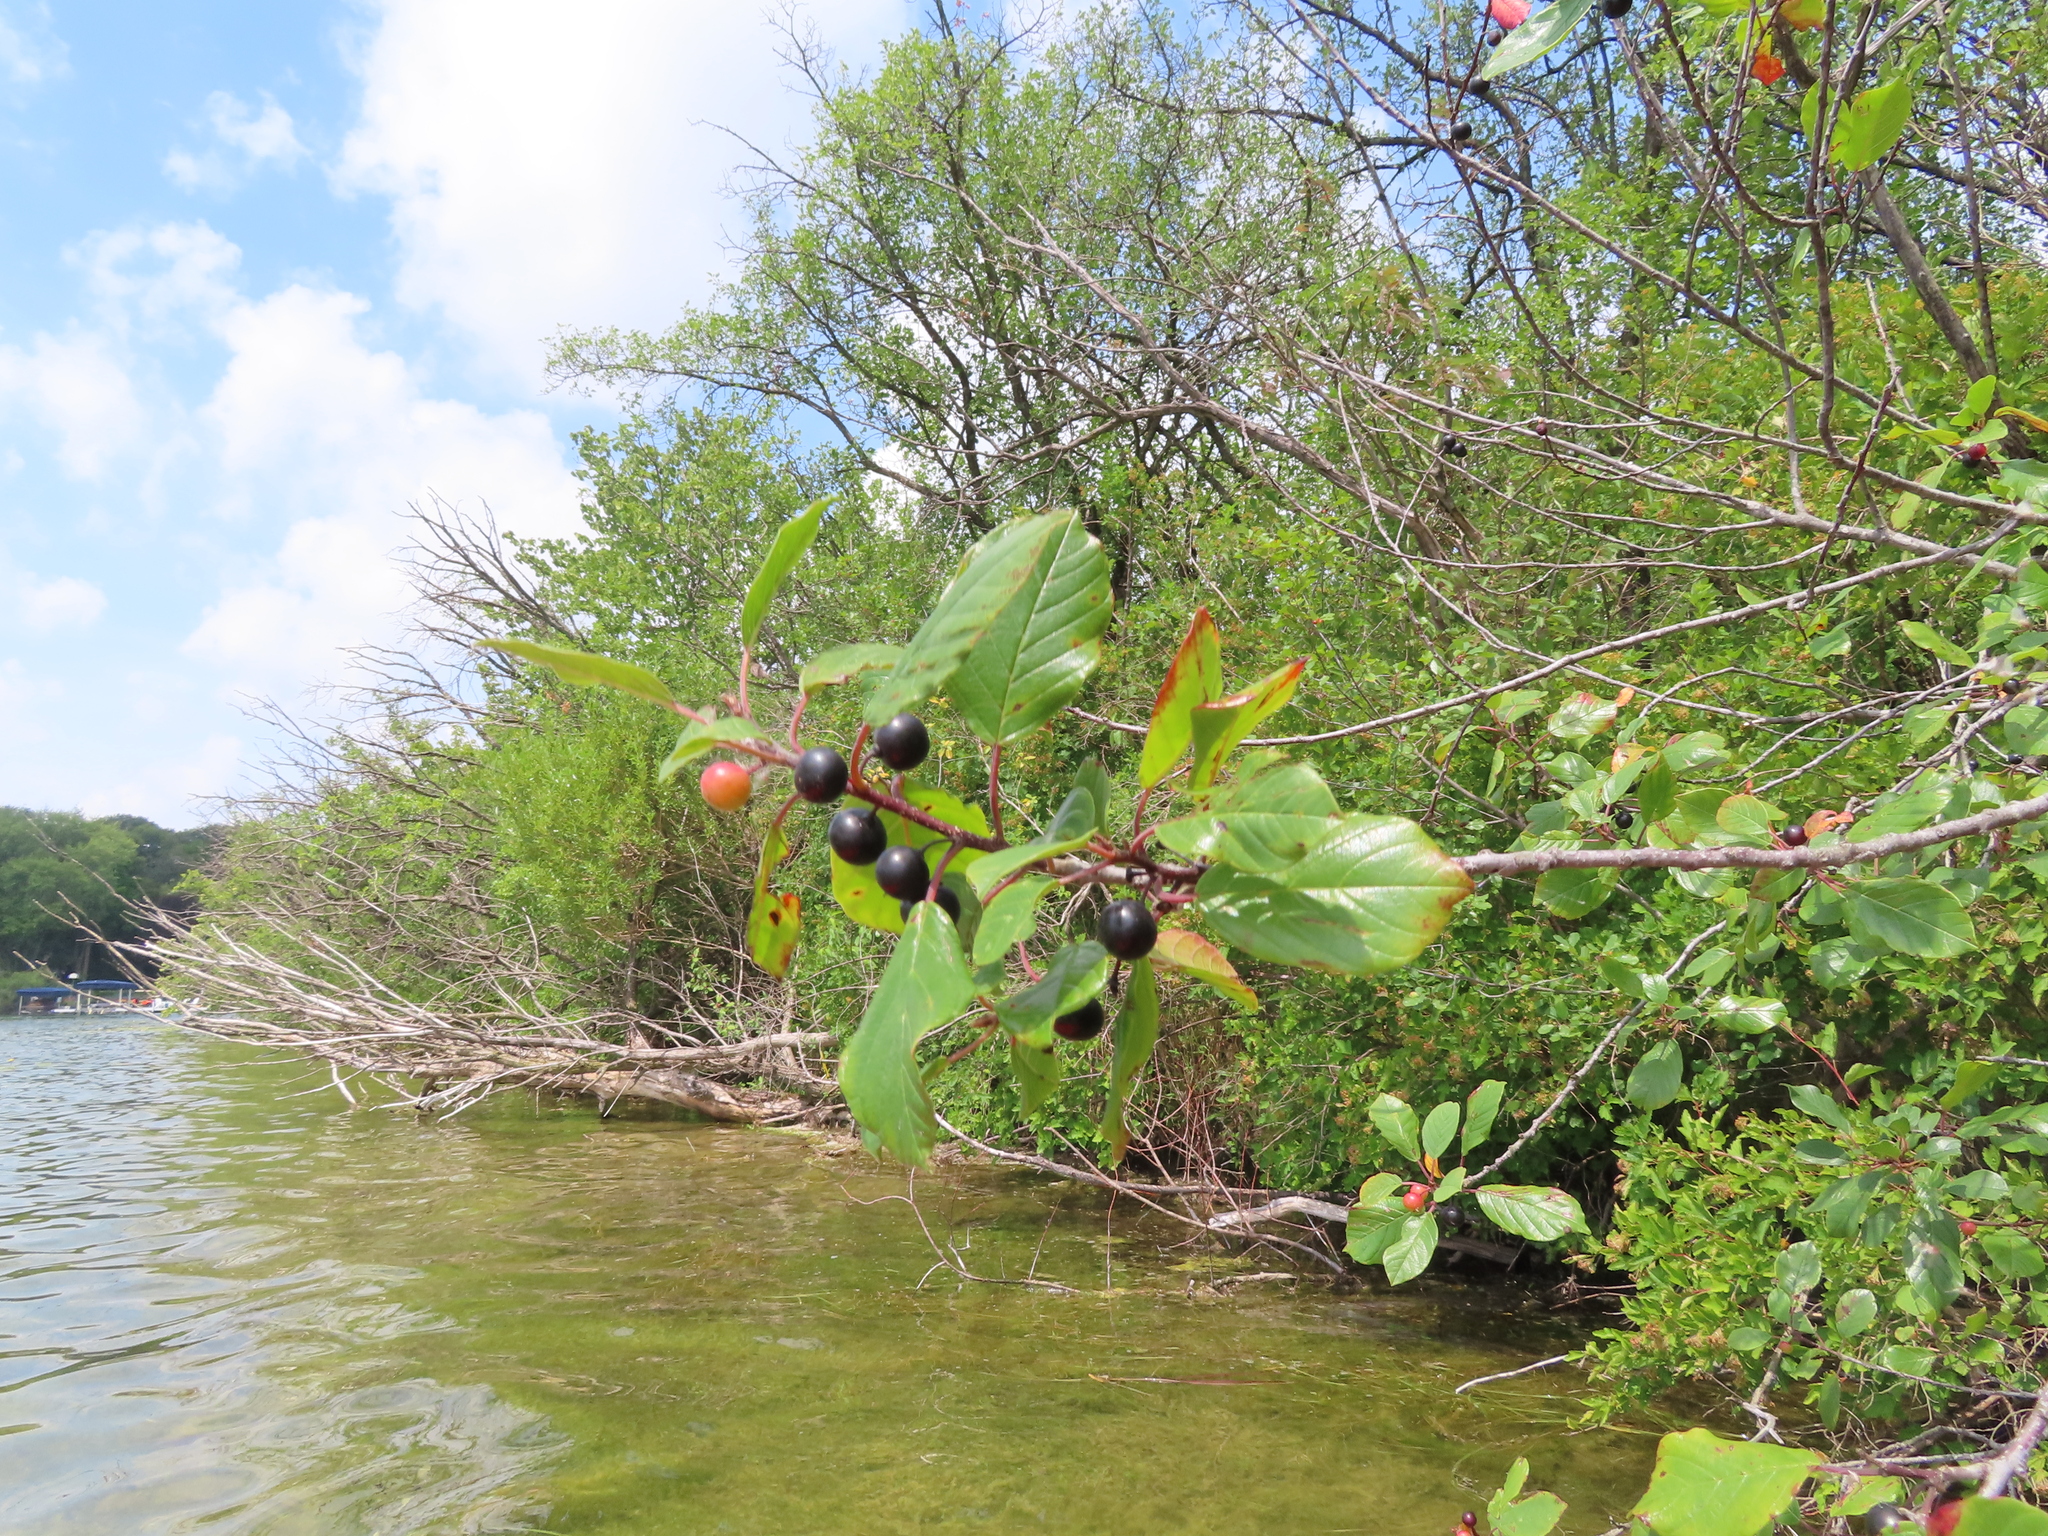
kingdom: Plantae
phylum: Tracheophyta
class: Magnoliopsida
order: Rosales
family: Rhamnaceae
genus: Frangula
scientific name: Frangula alnus
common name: Alder buckthorn
